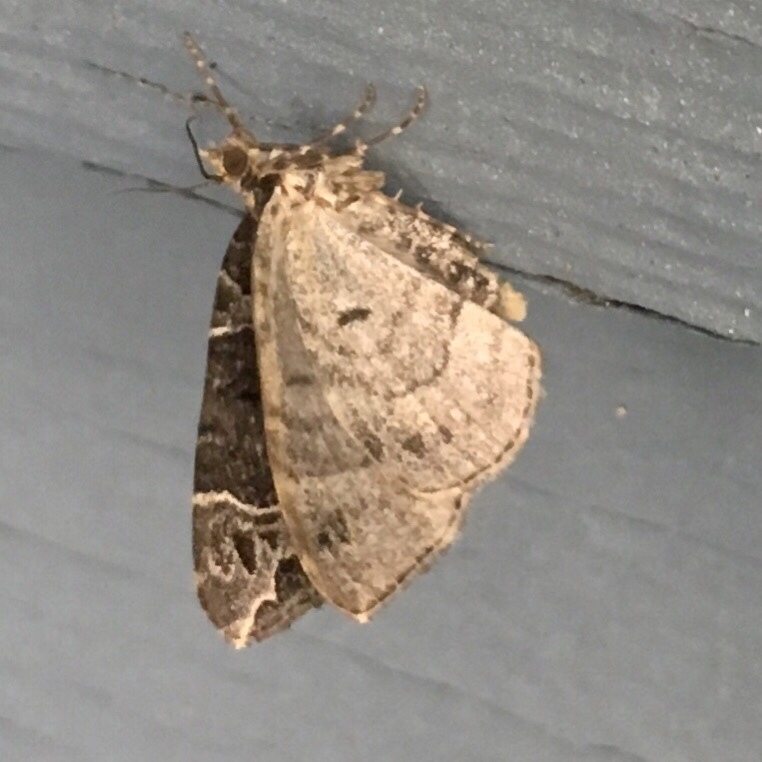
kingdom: Animalia
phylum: Arthropoda
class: Insecta
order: Lepidoptera
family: Geometridae
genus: Ecliptopera
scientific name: Ecliptopera silaceata
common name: Small phoenix
